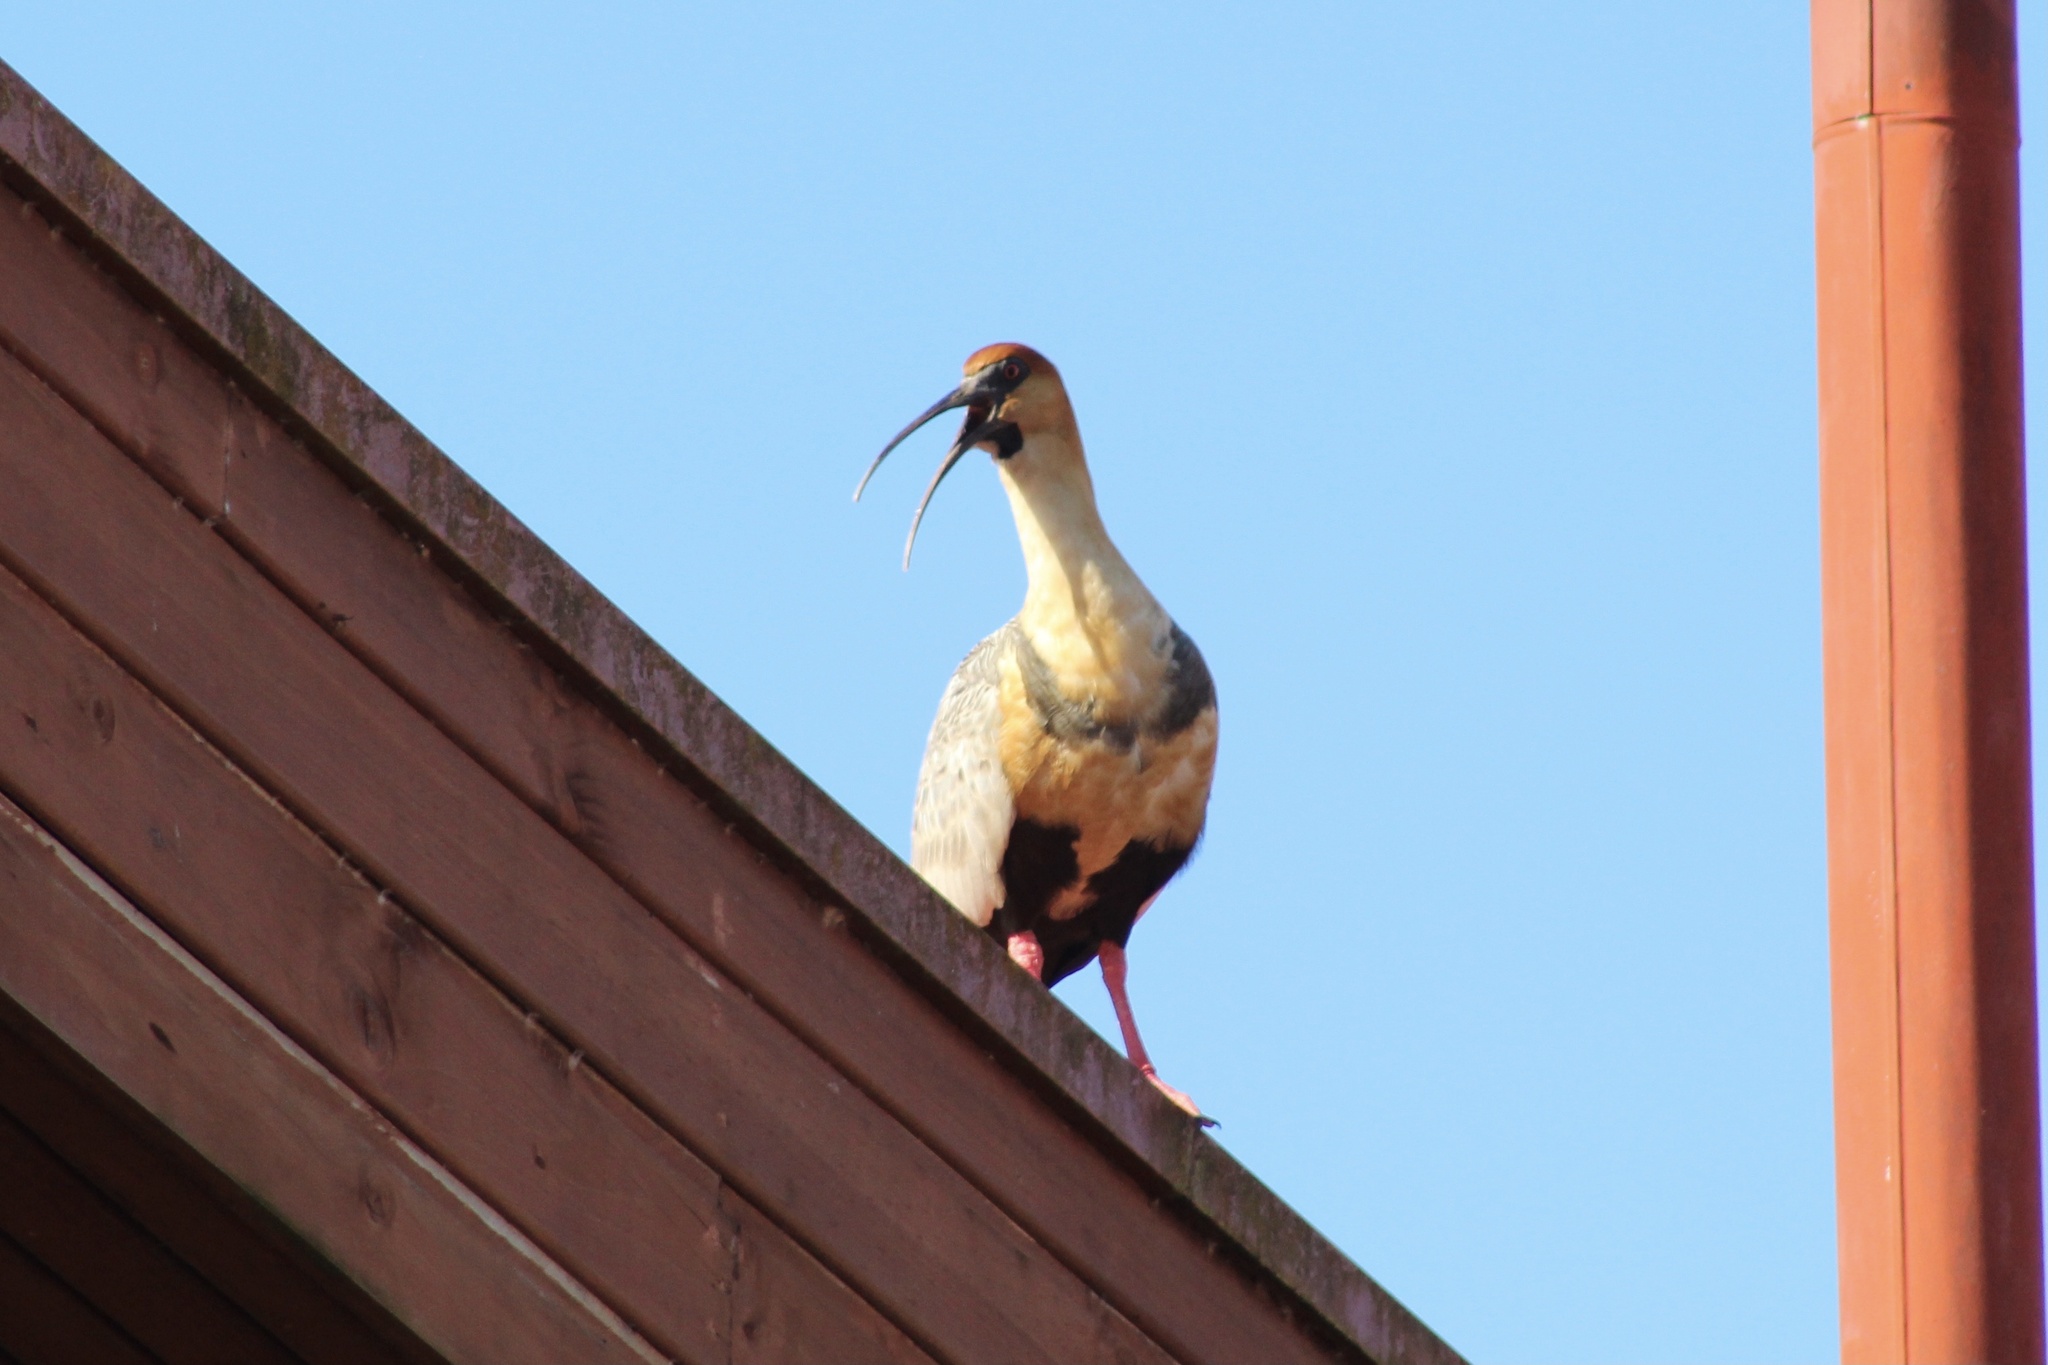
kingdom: Animalia
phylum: Chordata
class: Aves
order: Pelecaniformes
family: Threskiornithidae
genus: Theristicus
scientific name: Theristicus melanopis
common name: Black-faced ibis
